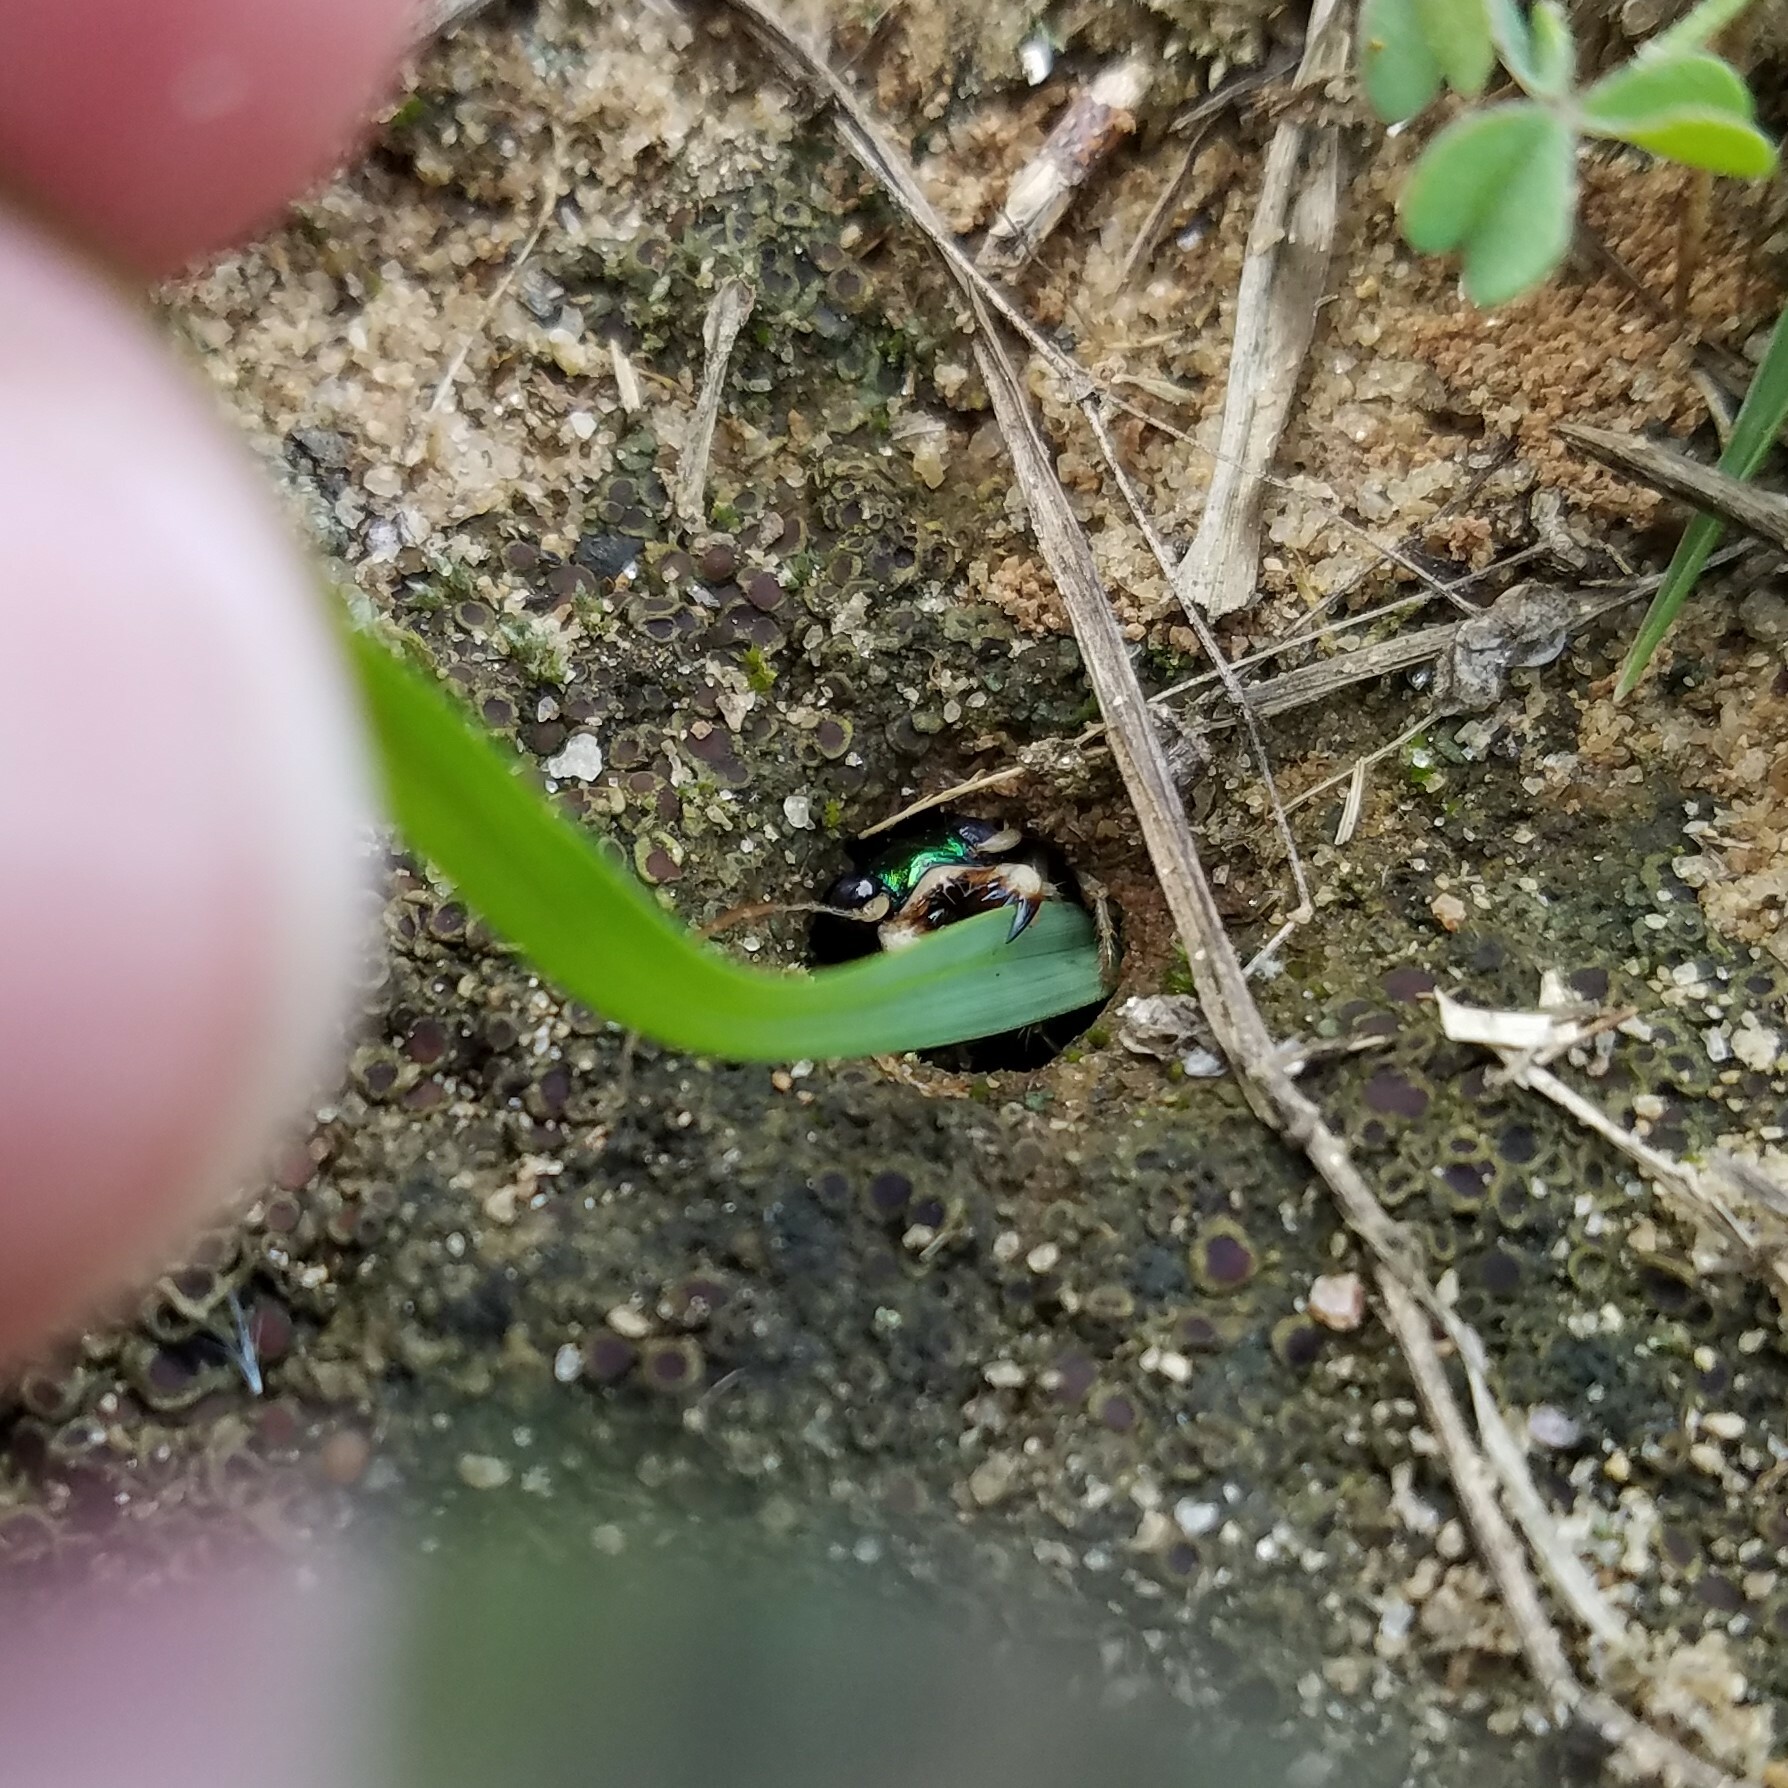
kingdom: Animalia
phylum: Arthropoda
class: Insecta
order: Coleoptera
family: Carabidae
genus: Tetracha
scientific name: Tetracha carolina
